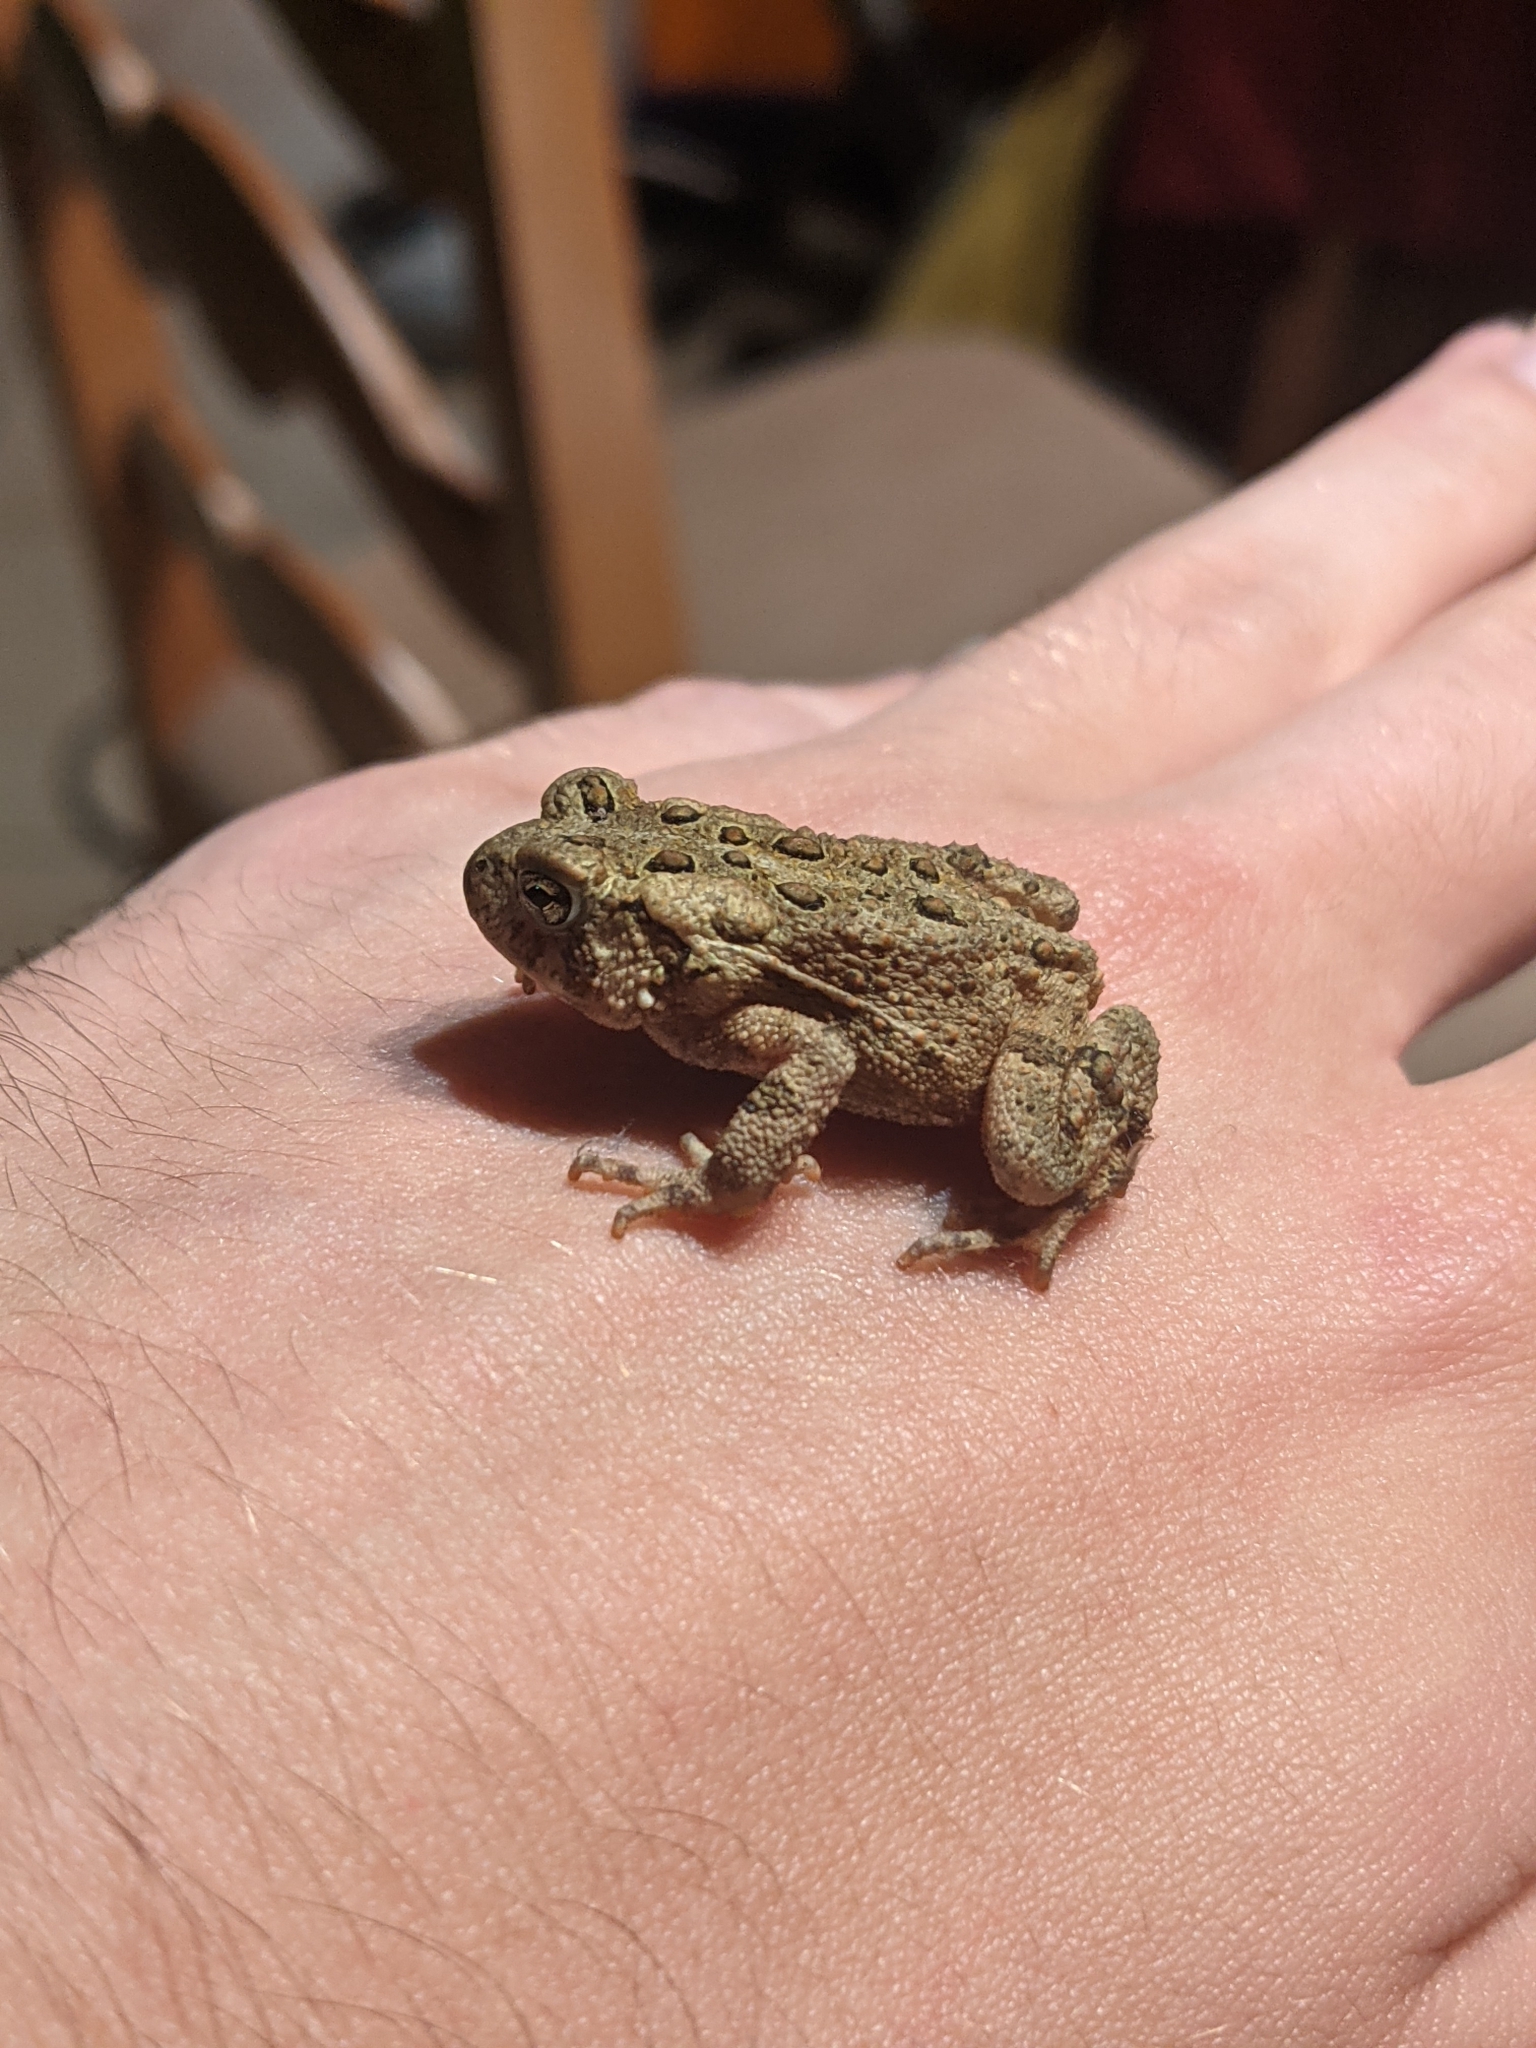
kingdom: Animalia
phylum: Chordata
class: Amphibia
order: Anura
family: Bufonidae
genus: Anaxyrus
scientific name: Anaxyrus americanus
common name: American toad
